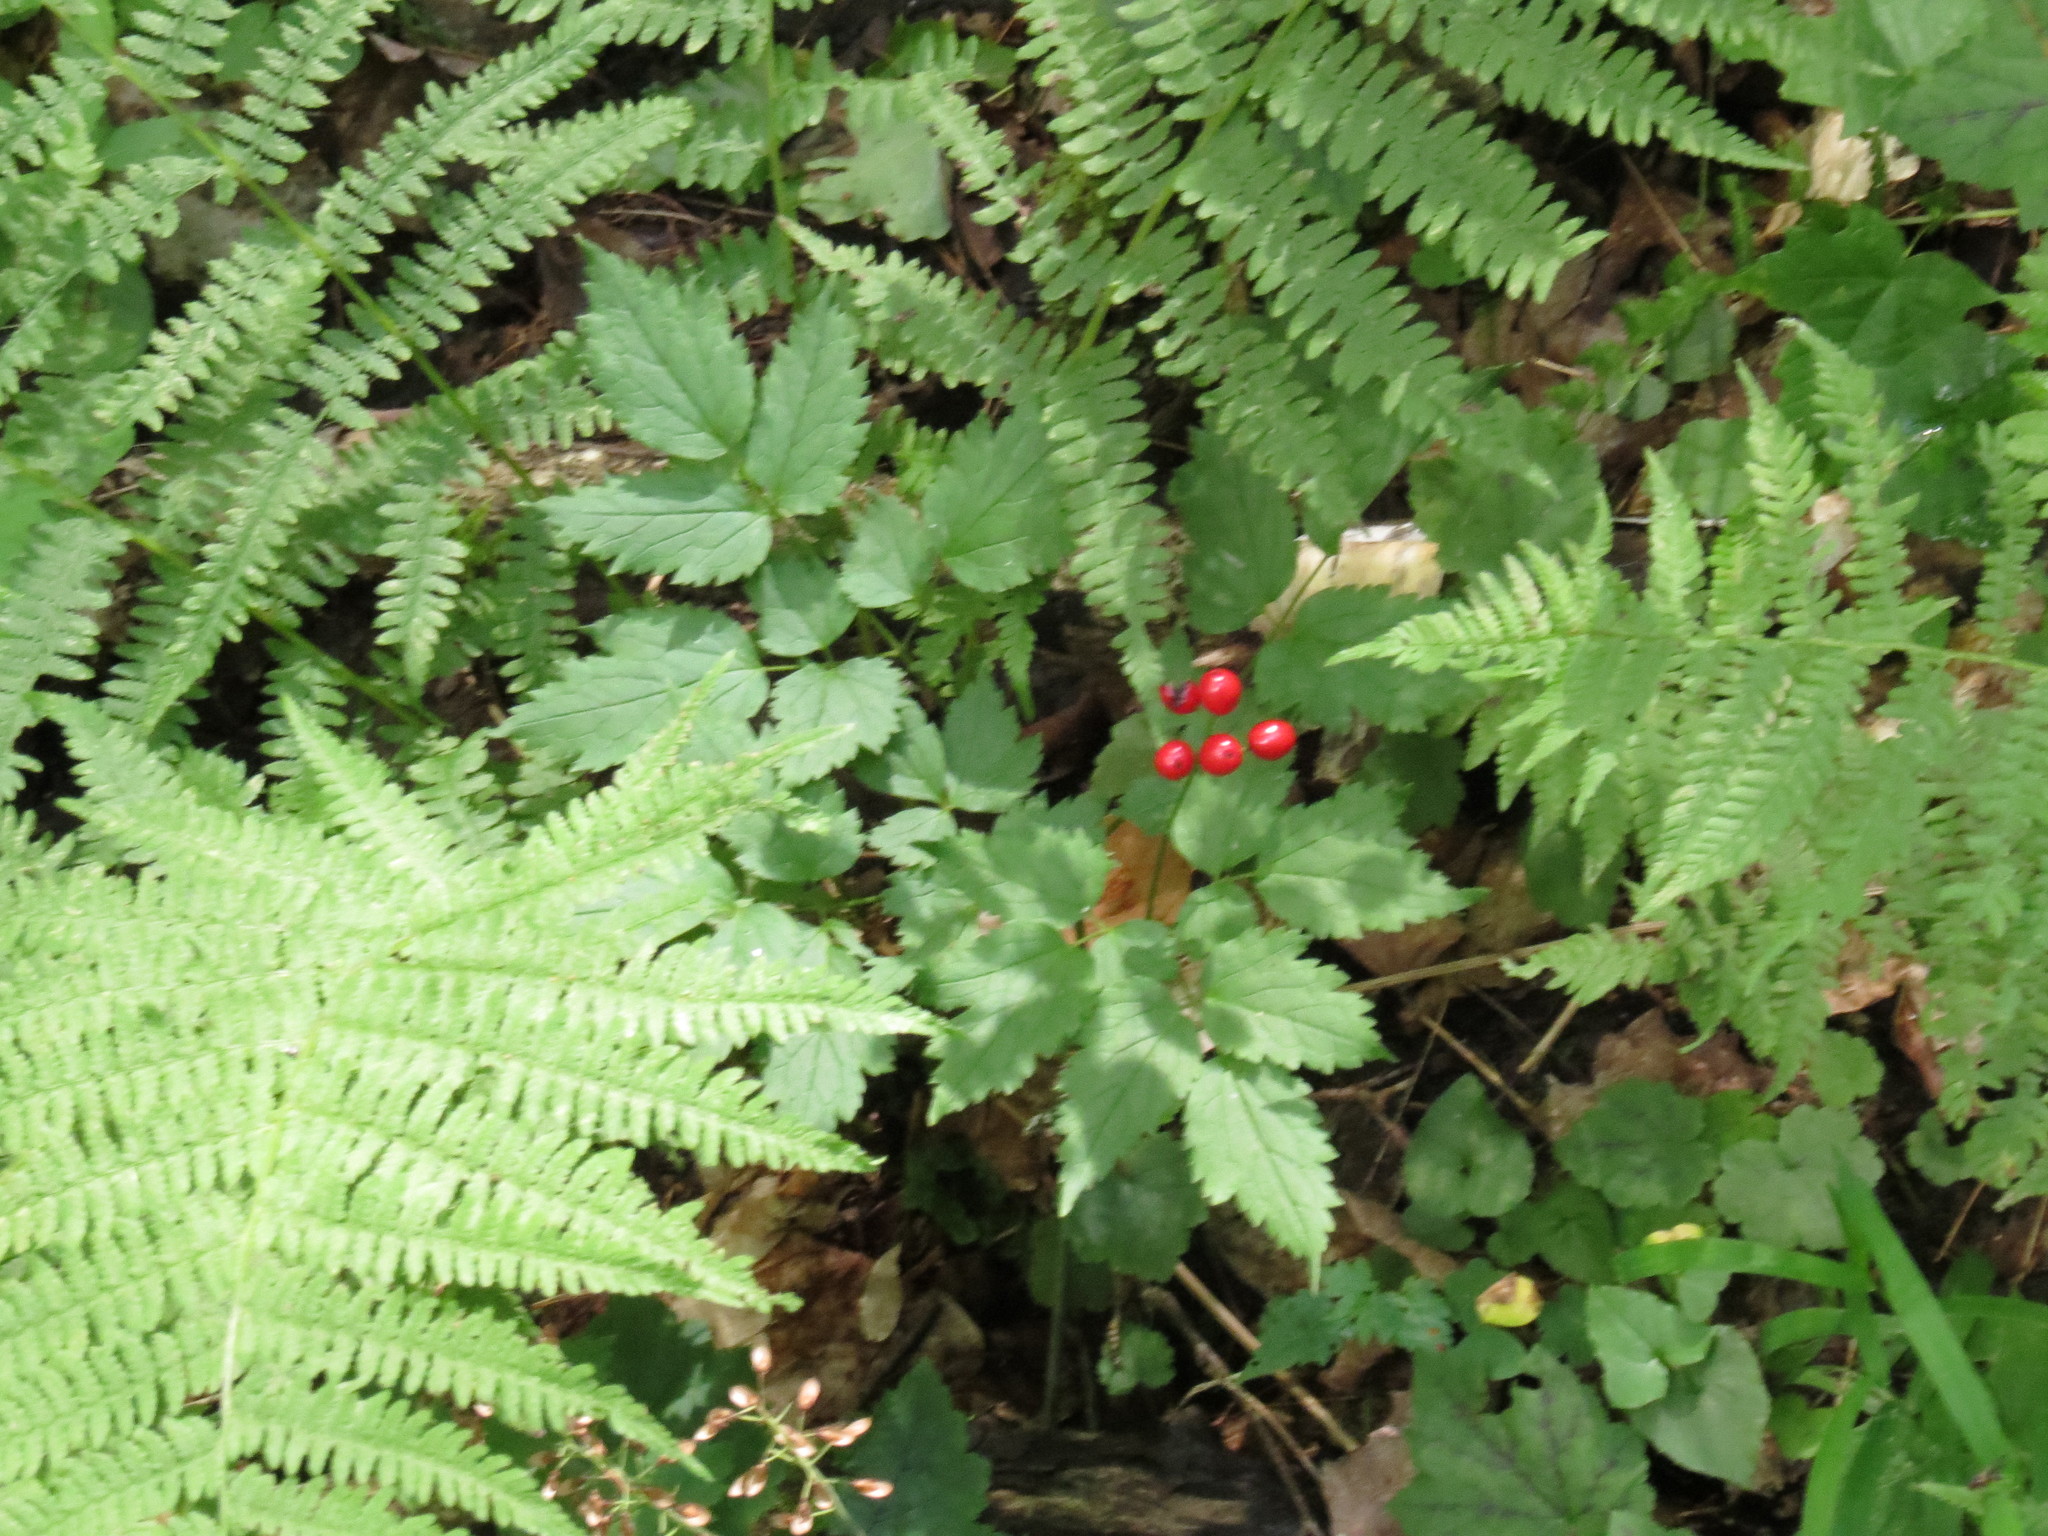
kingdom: Plantae
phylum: Tracheophyta
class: Magnoliopsida
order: Ranunculales
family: Ranunculaceae
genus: Actaea
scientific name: Actaea rubra
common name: Red baneberry
